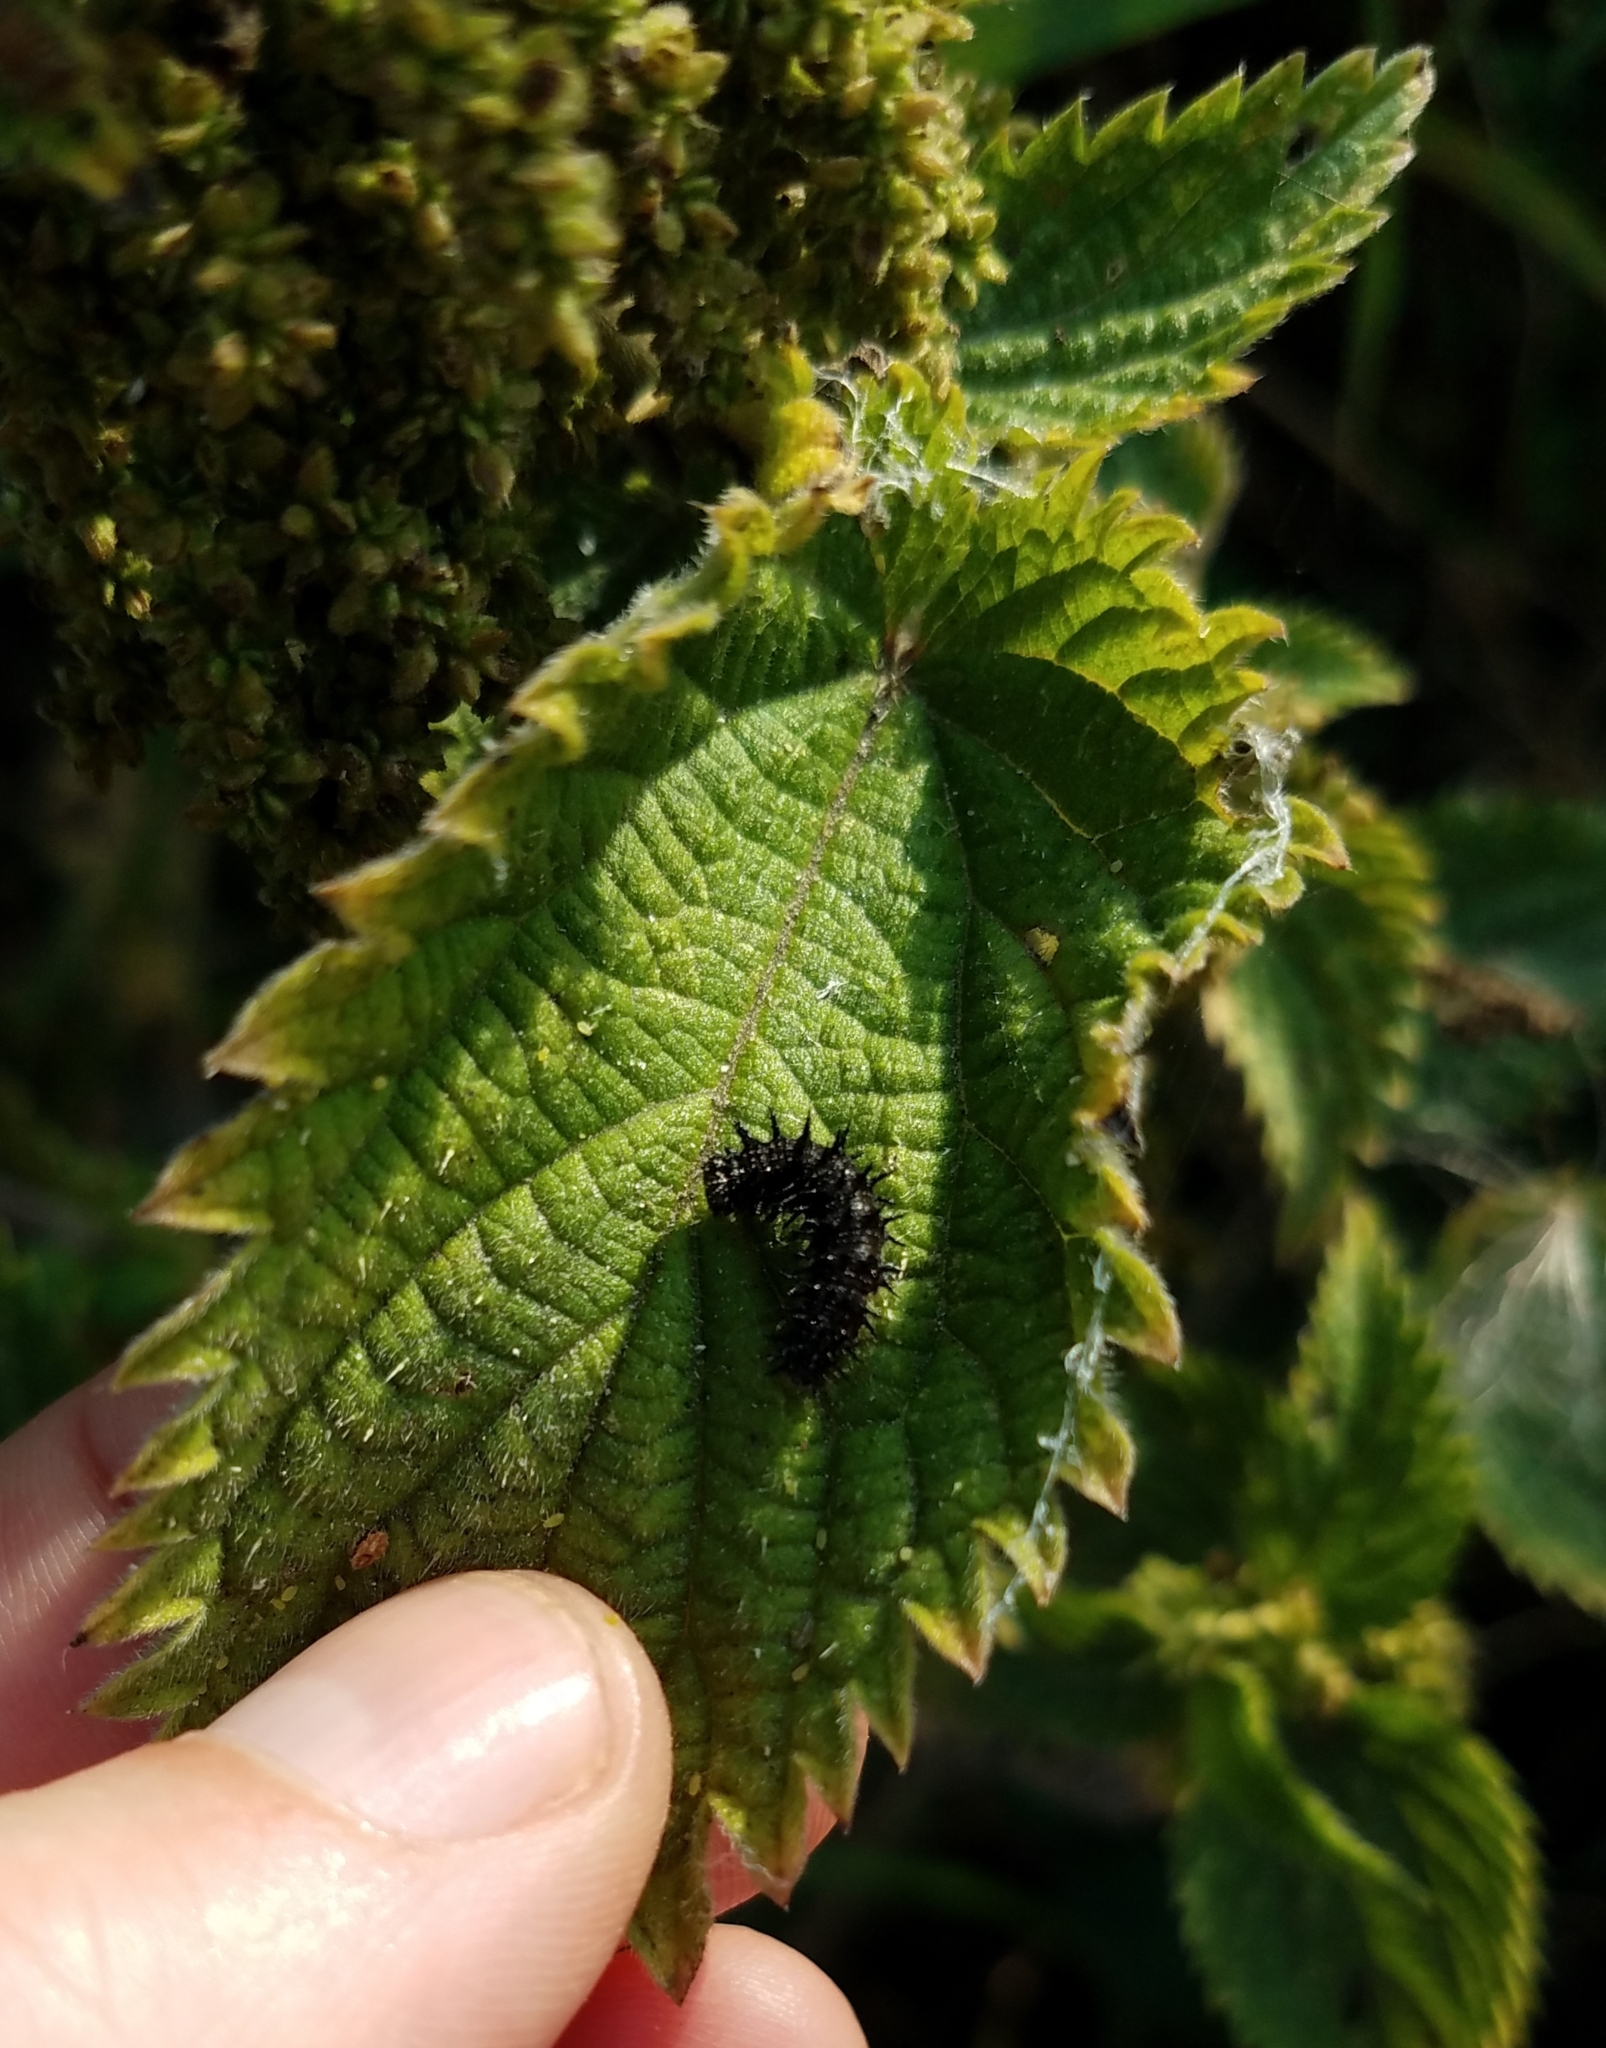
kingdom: Animalia
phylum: Arthropoda
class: Insecta
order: Lepidoptera
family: Nymphalidae
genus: Vanessa
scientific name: Vanessa atalanta
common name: Red admiral
